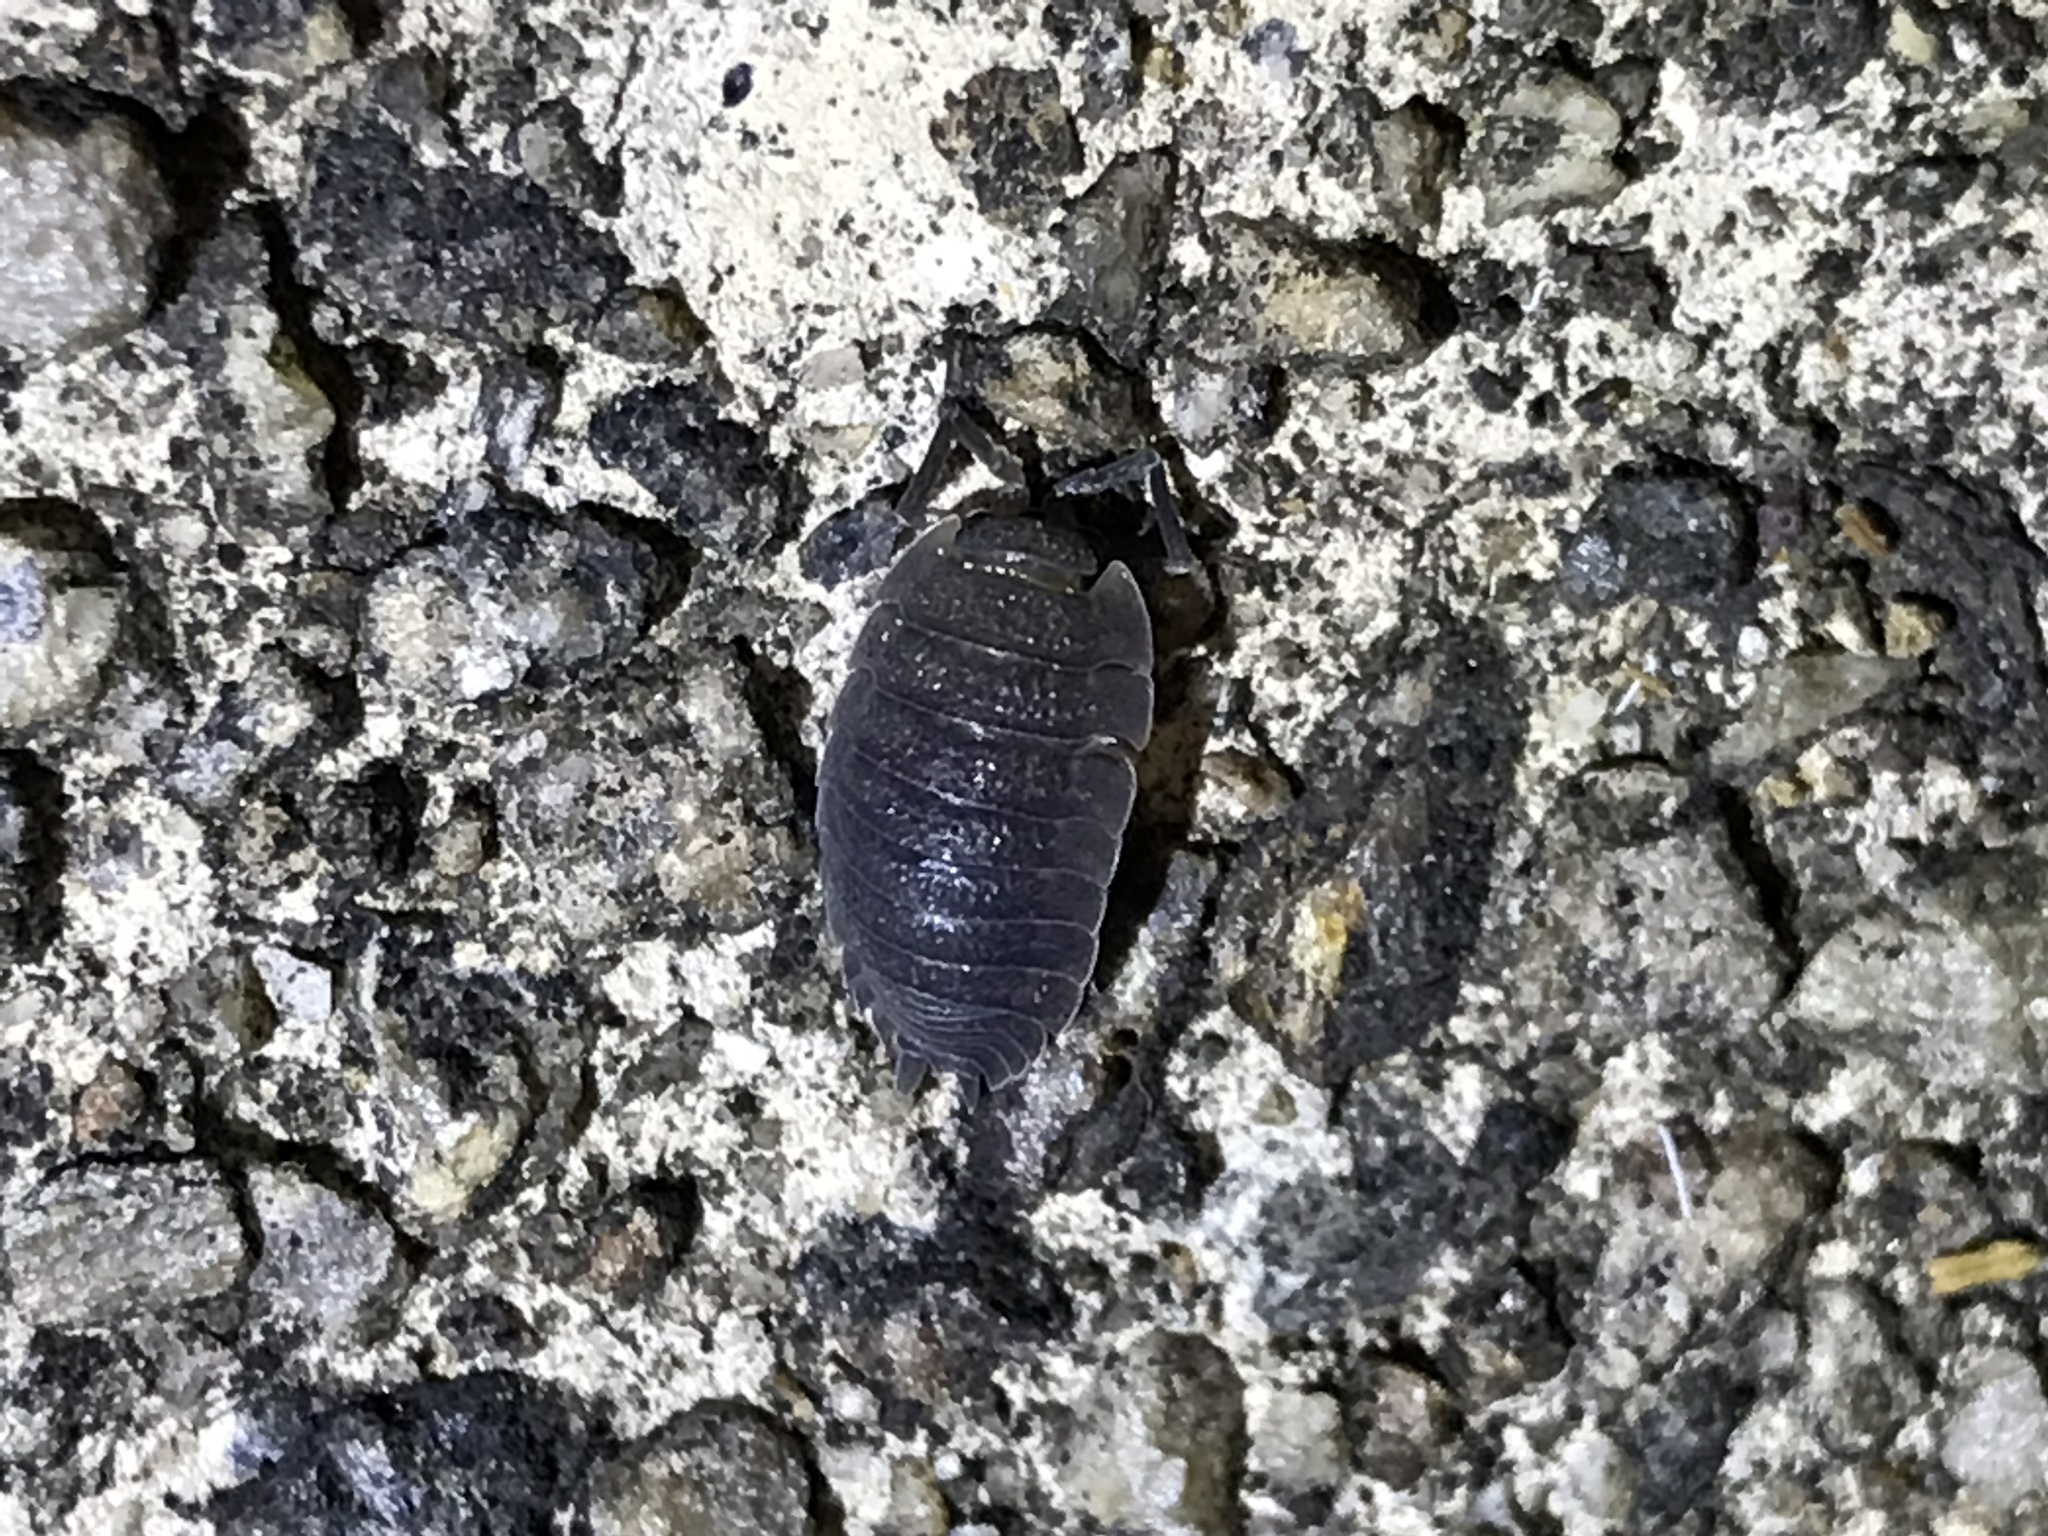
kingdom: Animalia
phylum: Arthropoda
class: Malacostraca
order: Isopoda
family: Porcellionidae
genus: Porcellio
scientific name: Porcellio scaber
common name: Common rough woodlouse
